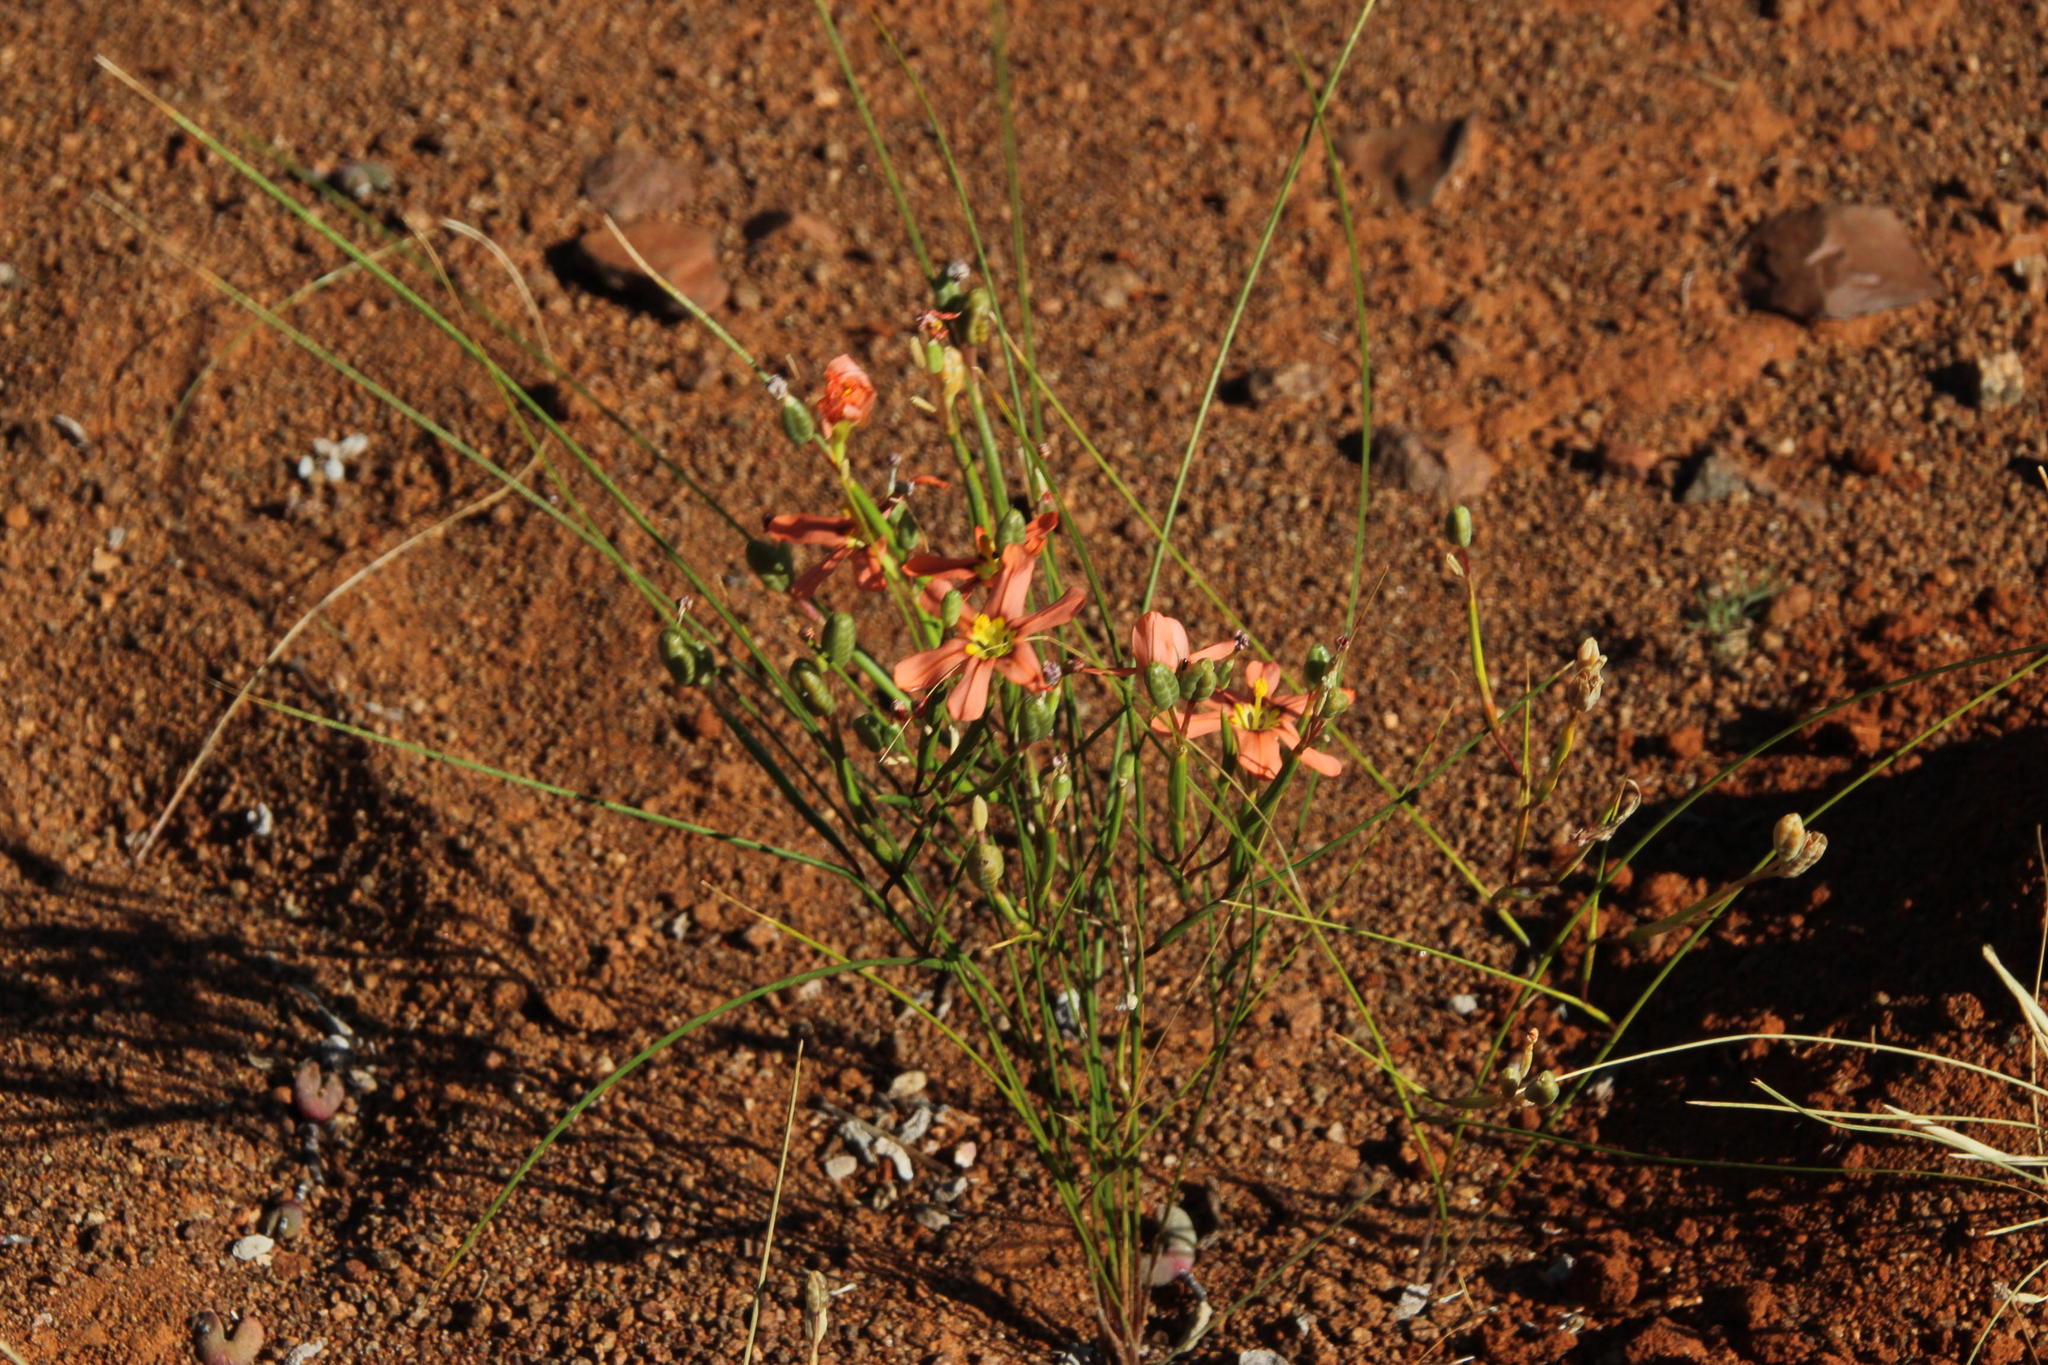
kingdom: Plantae
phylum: Tracheophyta
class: Liliopsida
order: Asparagales
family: Iridaceae
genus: Moraea
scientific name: Moraea fenestrata
